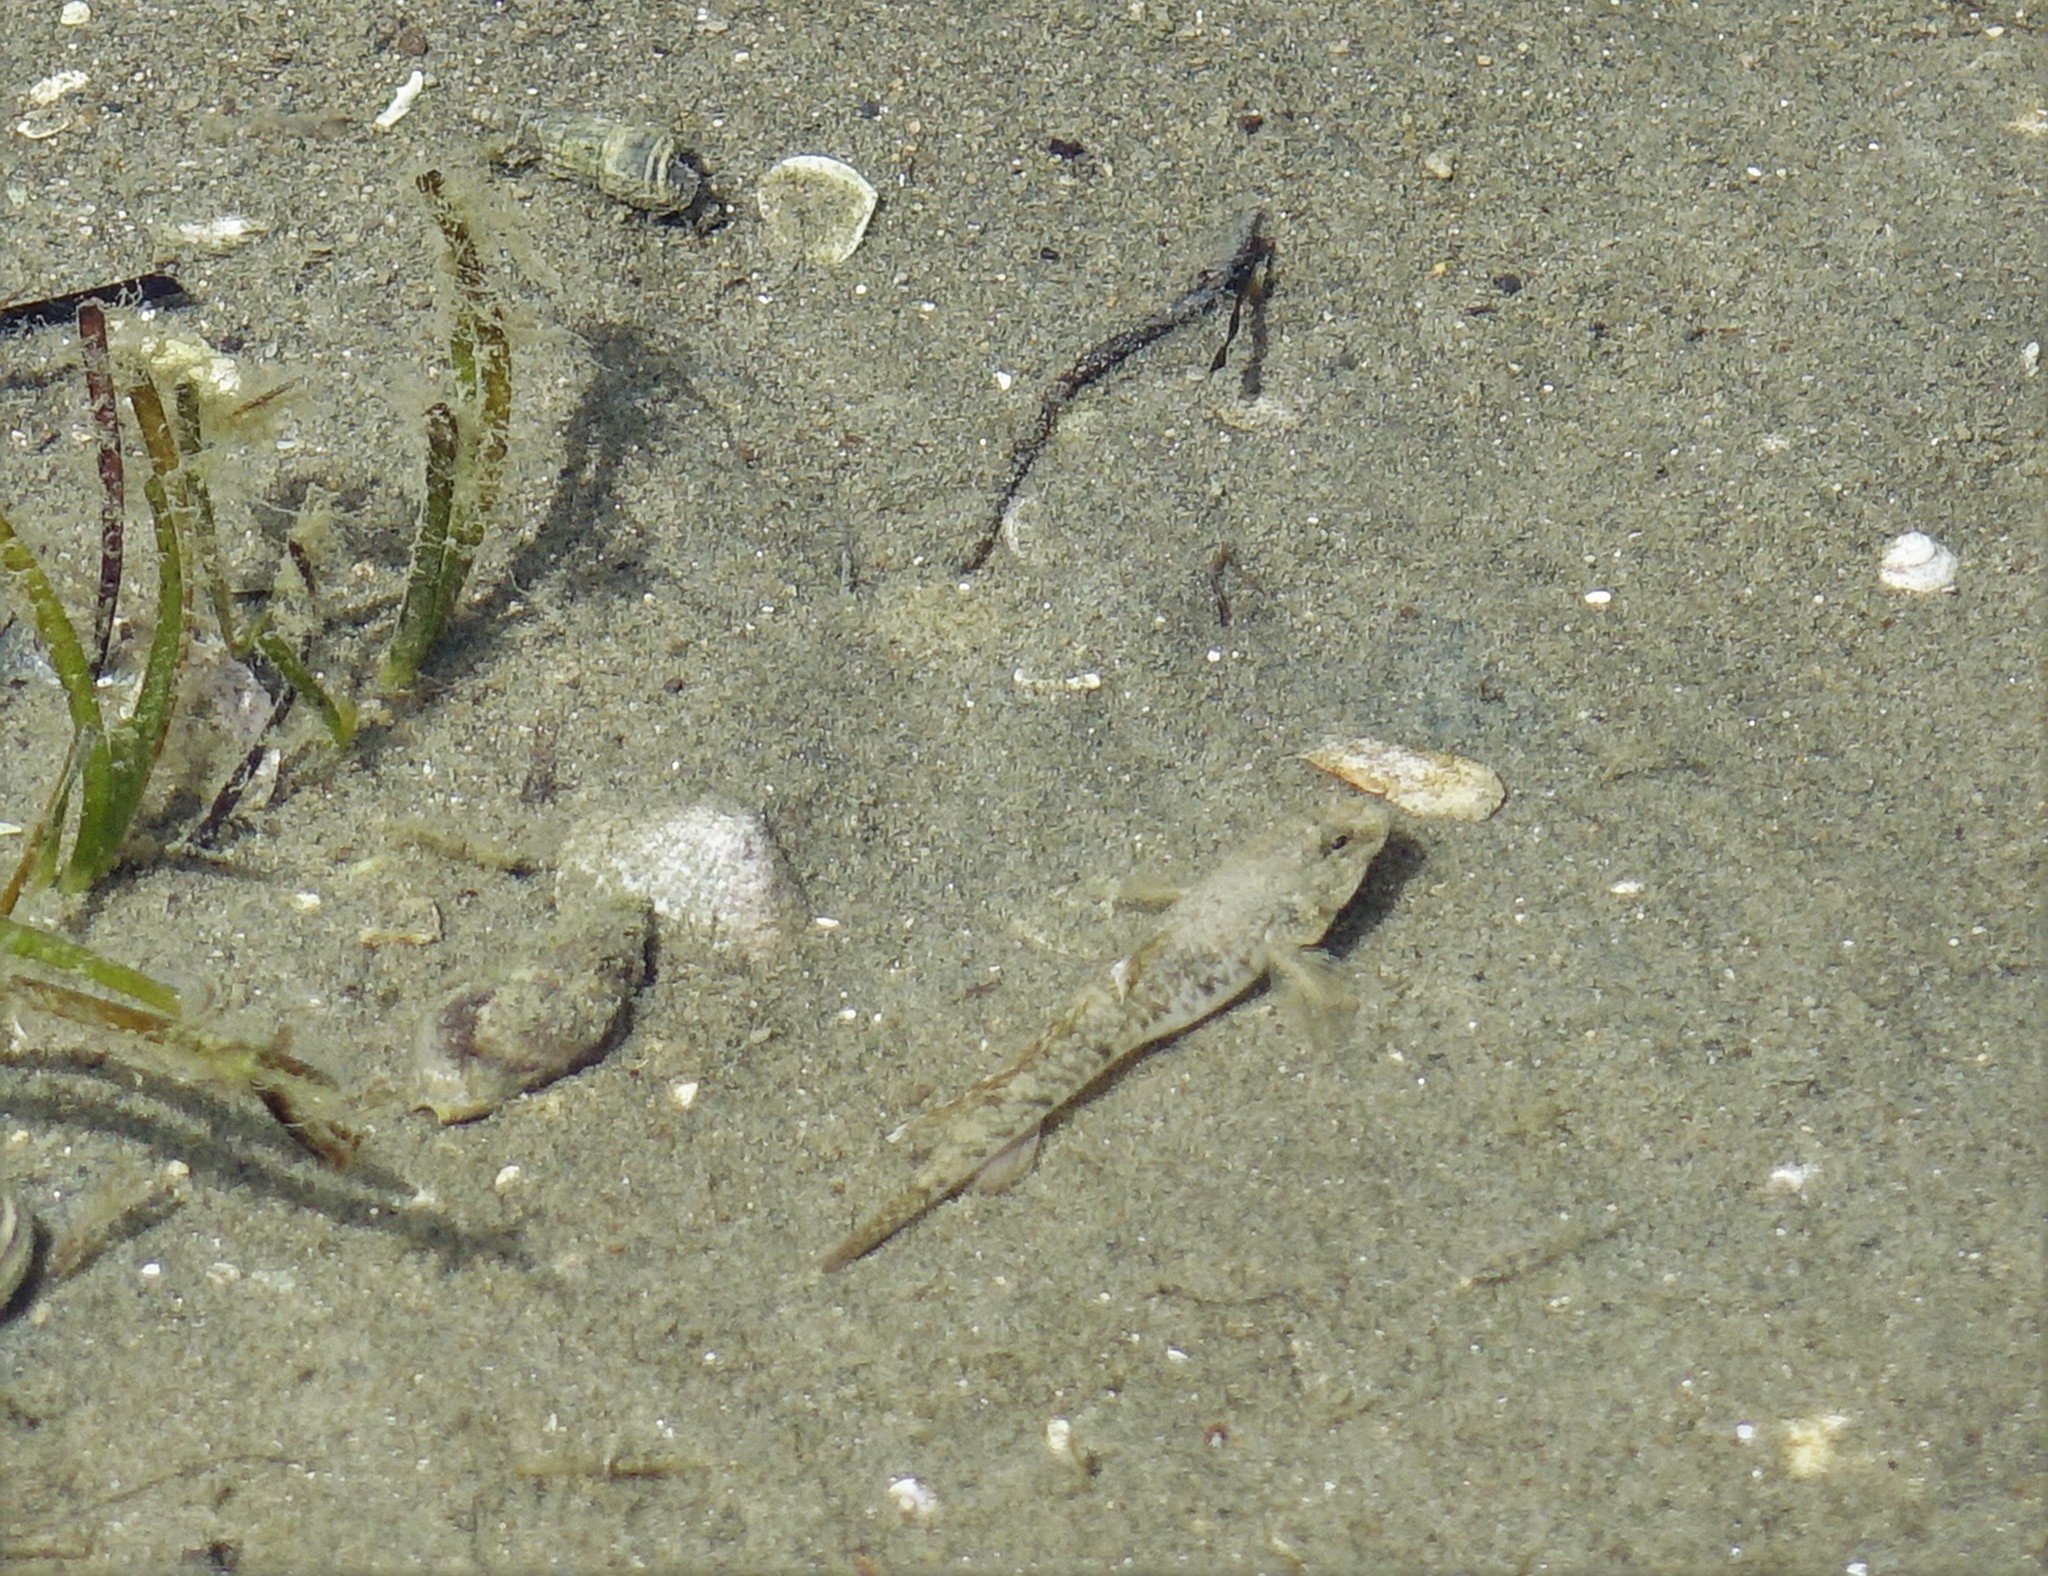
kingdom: Animalia
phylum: Chordata
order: Perciformes
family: Tripterygiidae
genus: Bellapiscis
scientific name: Bellapiscis medius
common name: Twister
